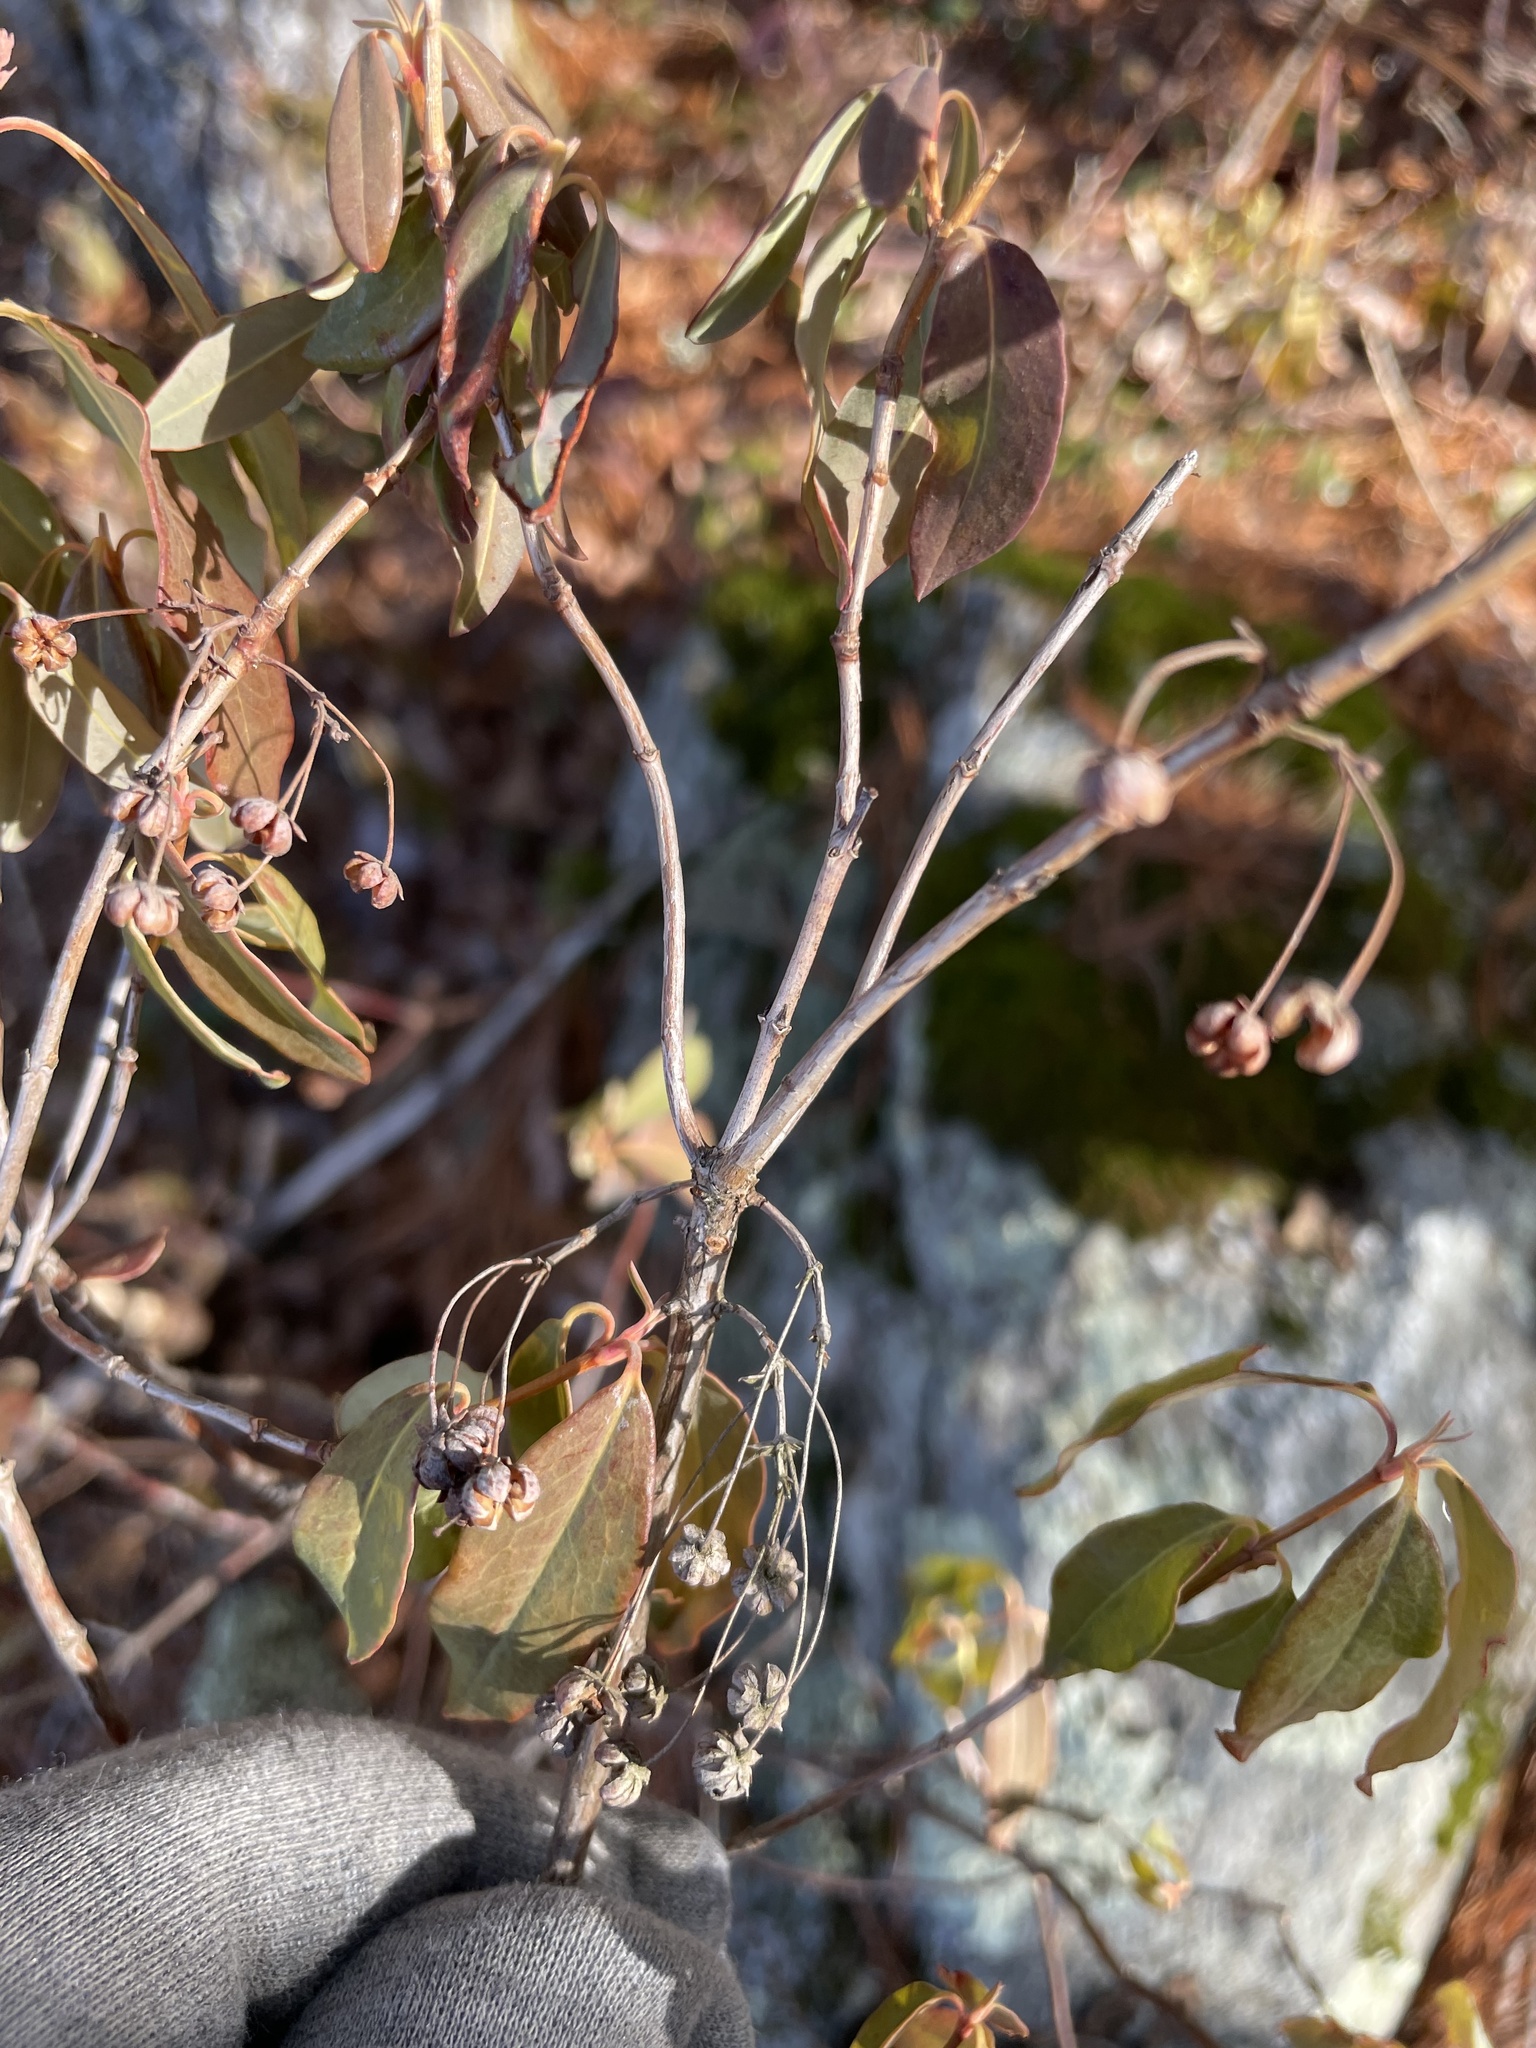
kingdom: Plantae
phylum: Tracheophyta
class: Magnoliopsida
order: Ericales
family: Ericaceae
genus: Kalmia
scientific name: Kalmia angustifolia
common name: Sheep-laurel
